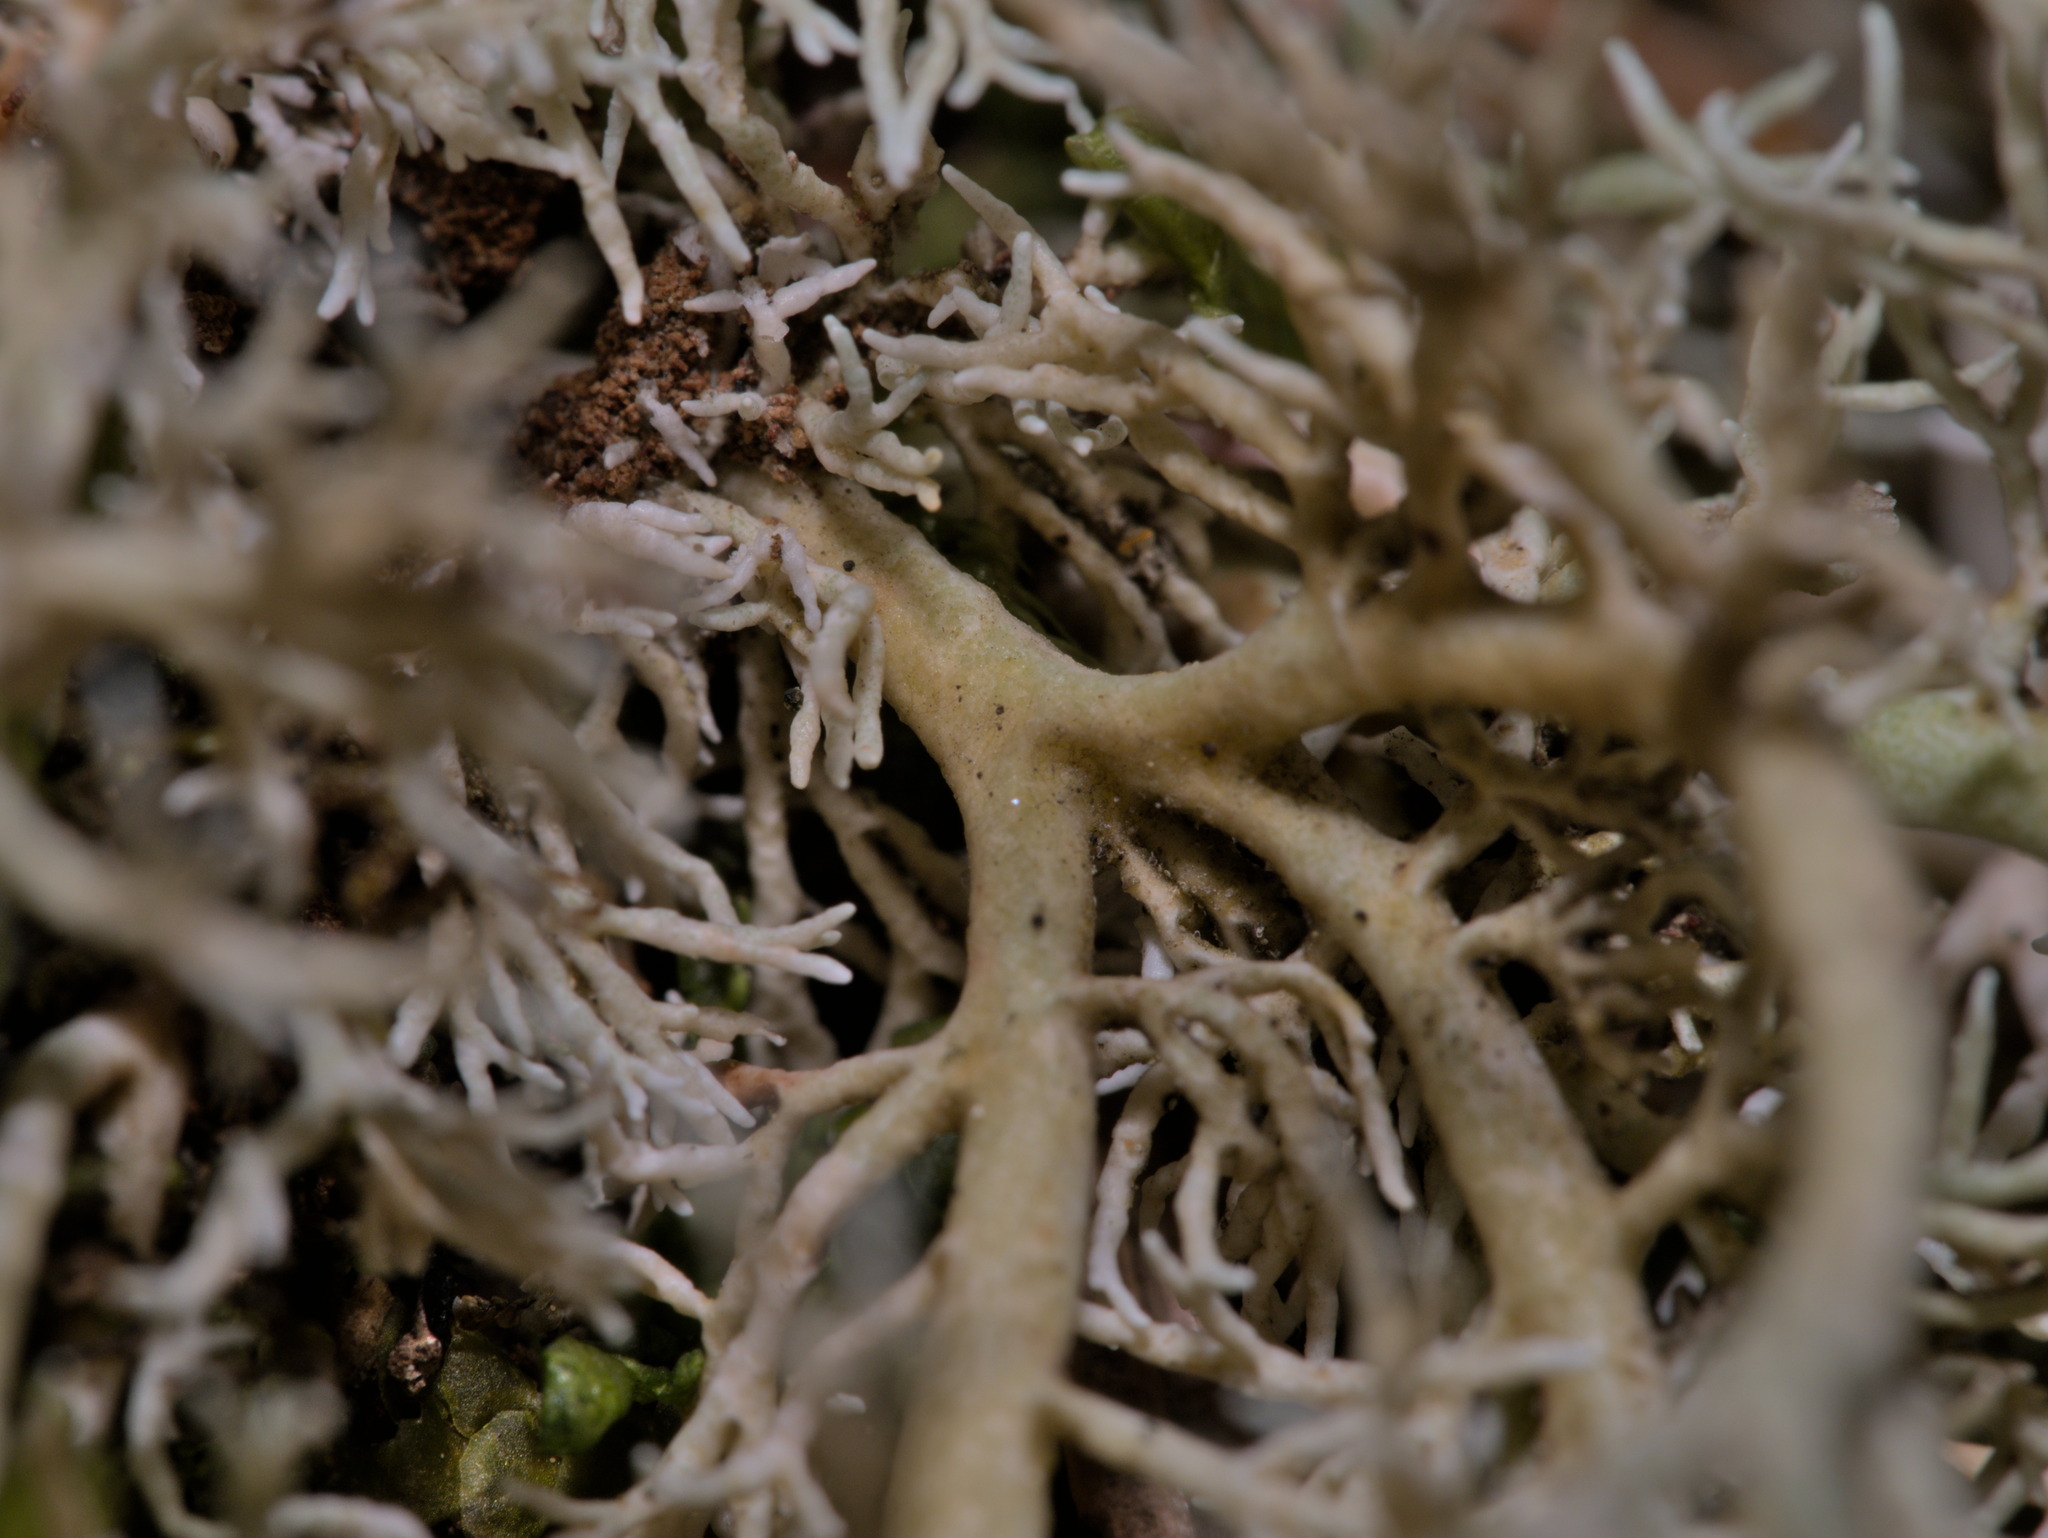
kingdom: Fungi
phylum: Ascomycota
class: Lecanoromycetes
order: Lecanorales
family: Sphaerophoraceae
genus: Sphaerophorus
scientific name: Sphaerophorus venerabilis
